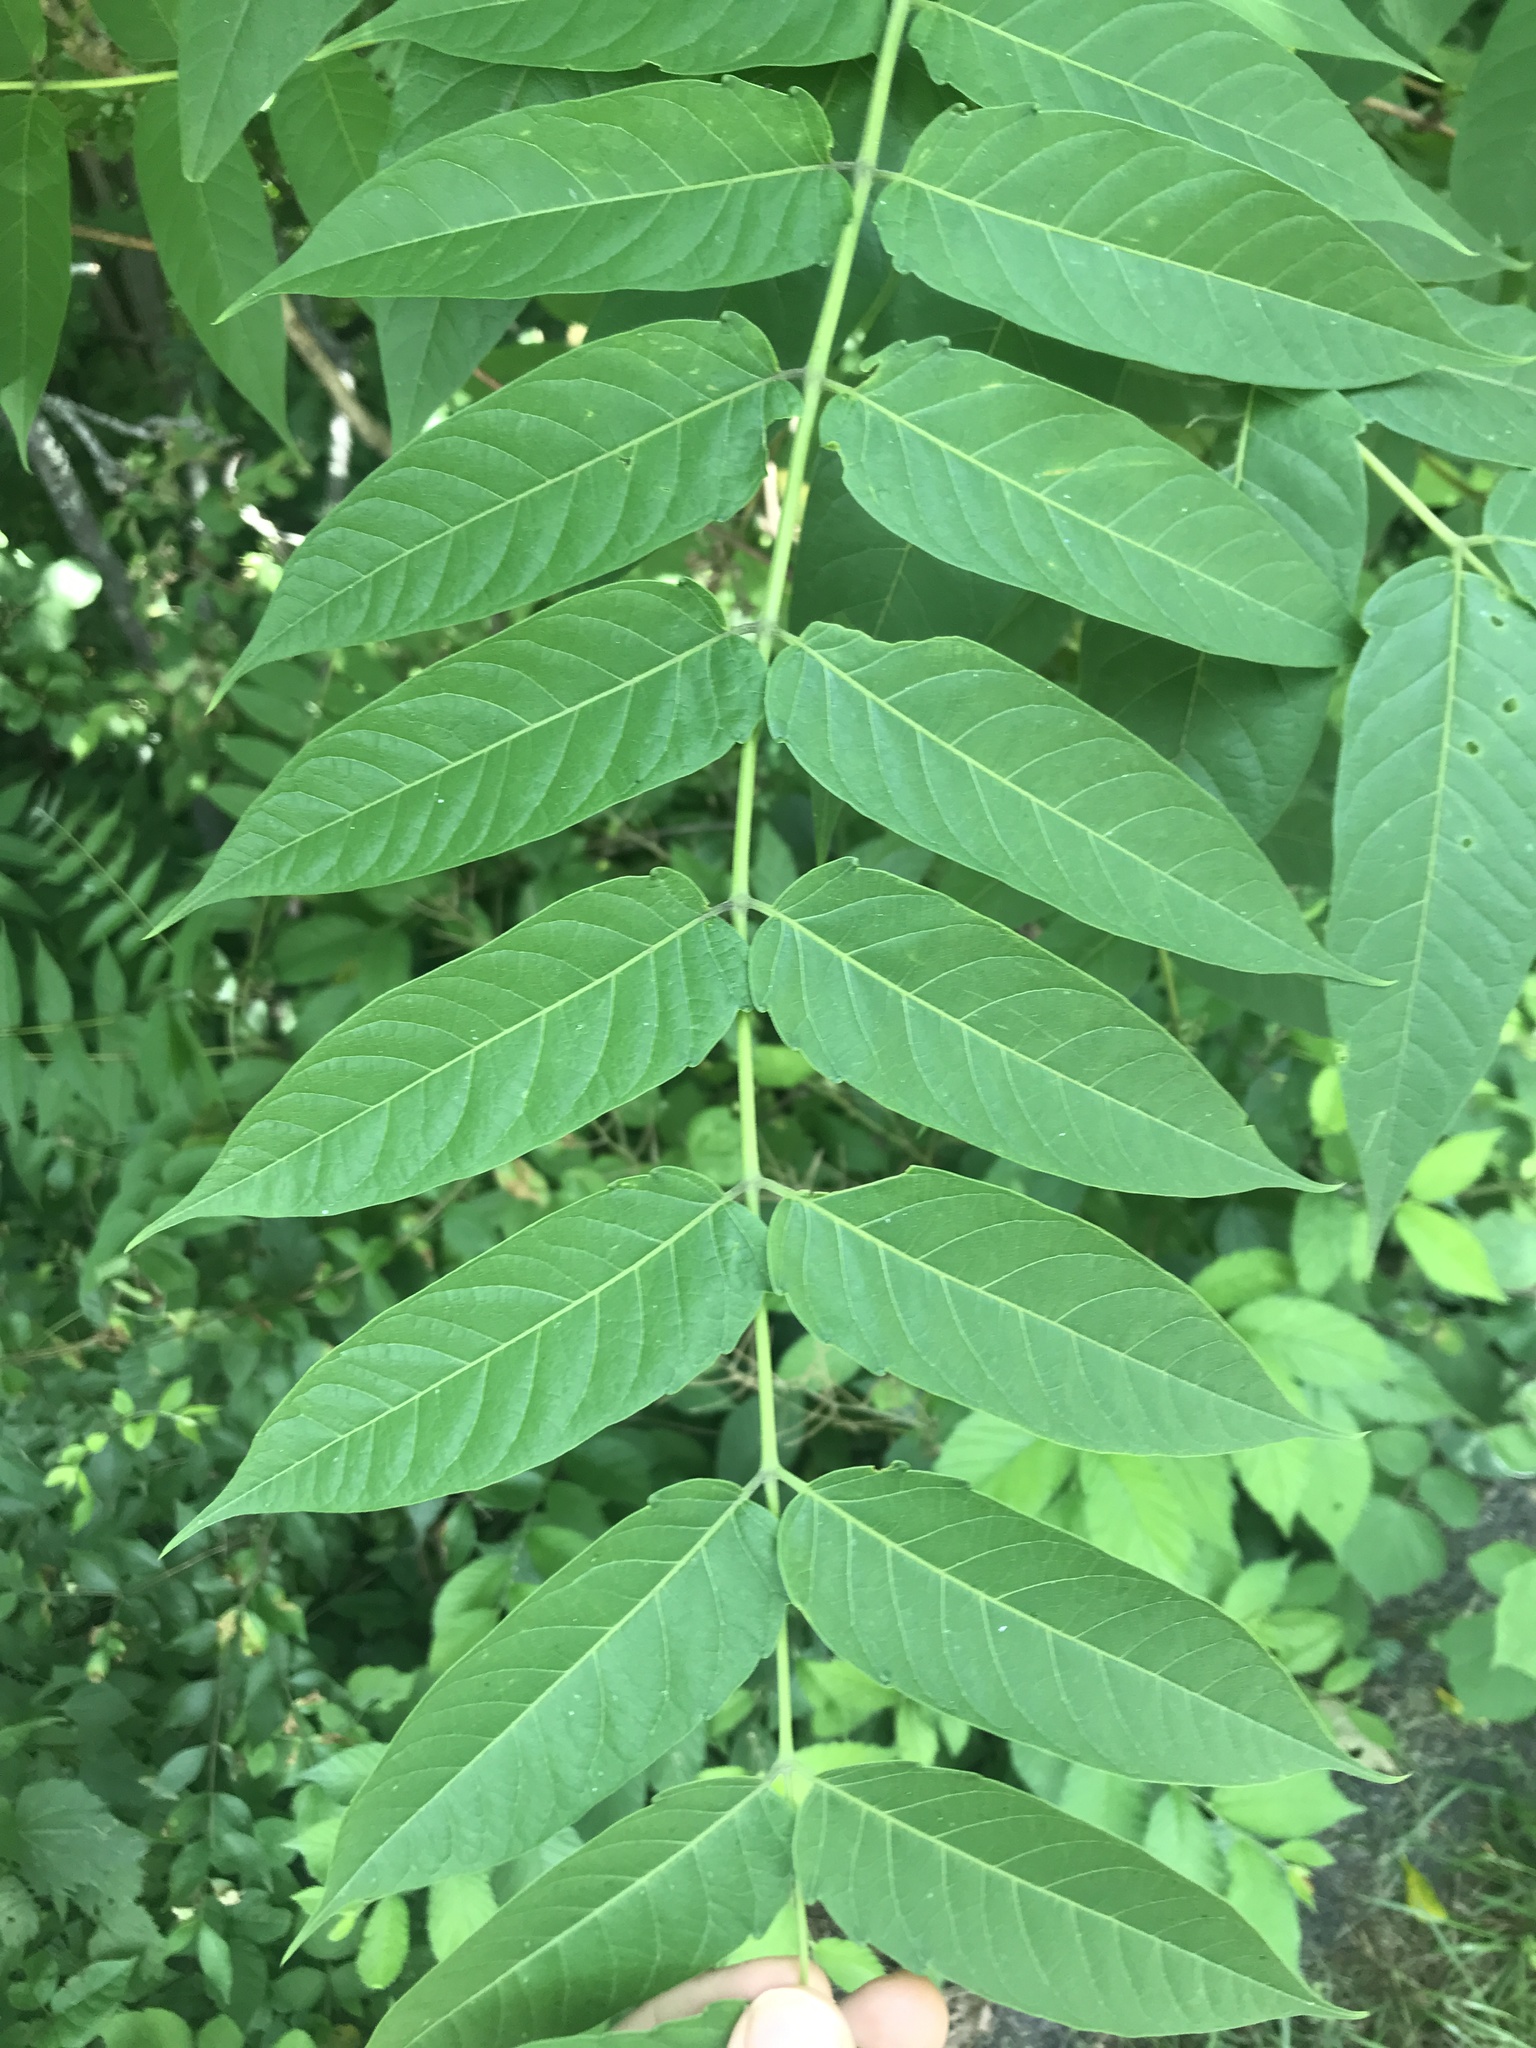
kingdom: Plantae
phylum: Tracheophyta
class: Magnoliopsida
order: Sapindales
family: Simaroubaceae
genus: Ailanthus
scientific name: Ailanthus altissima
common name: Tree-of-heaven
